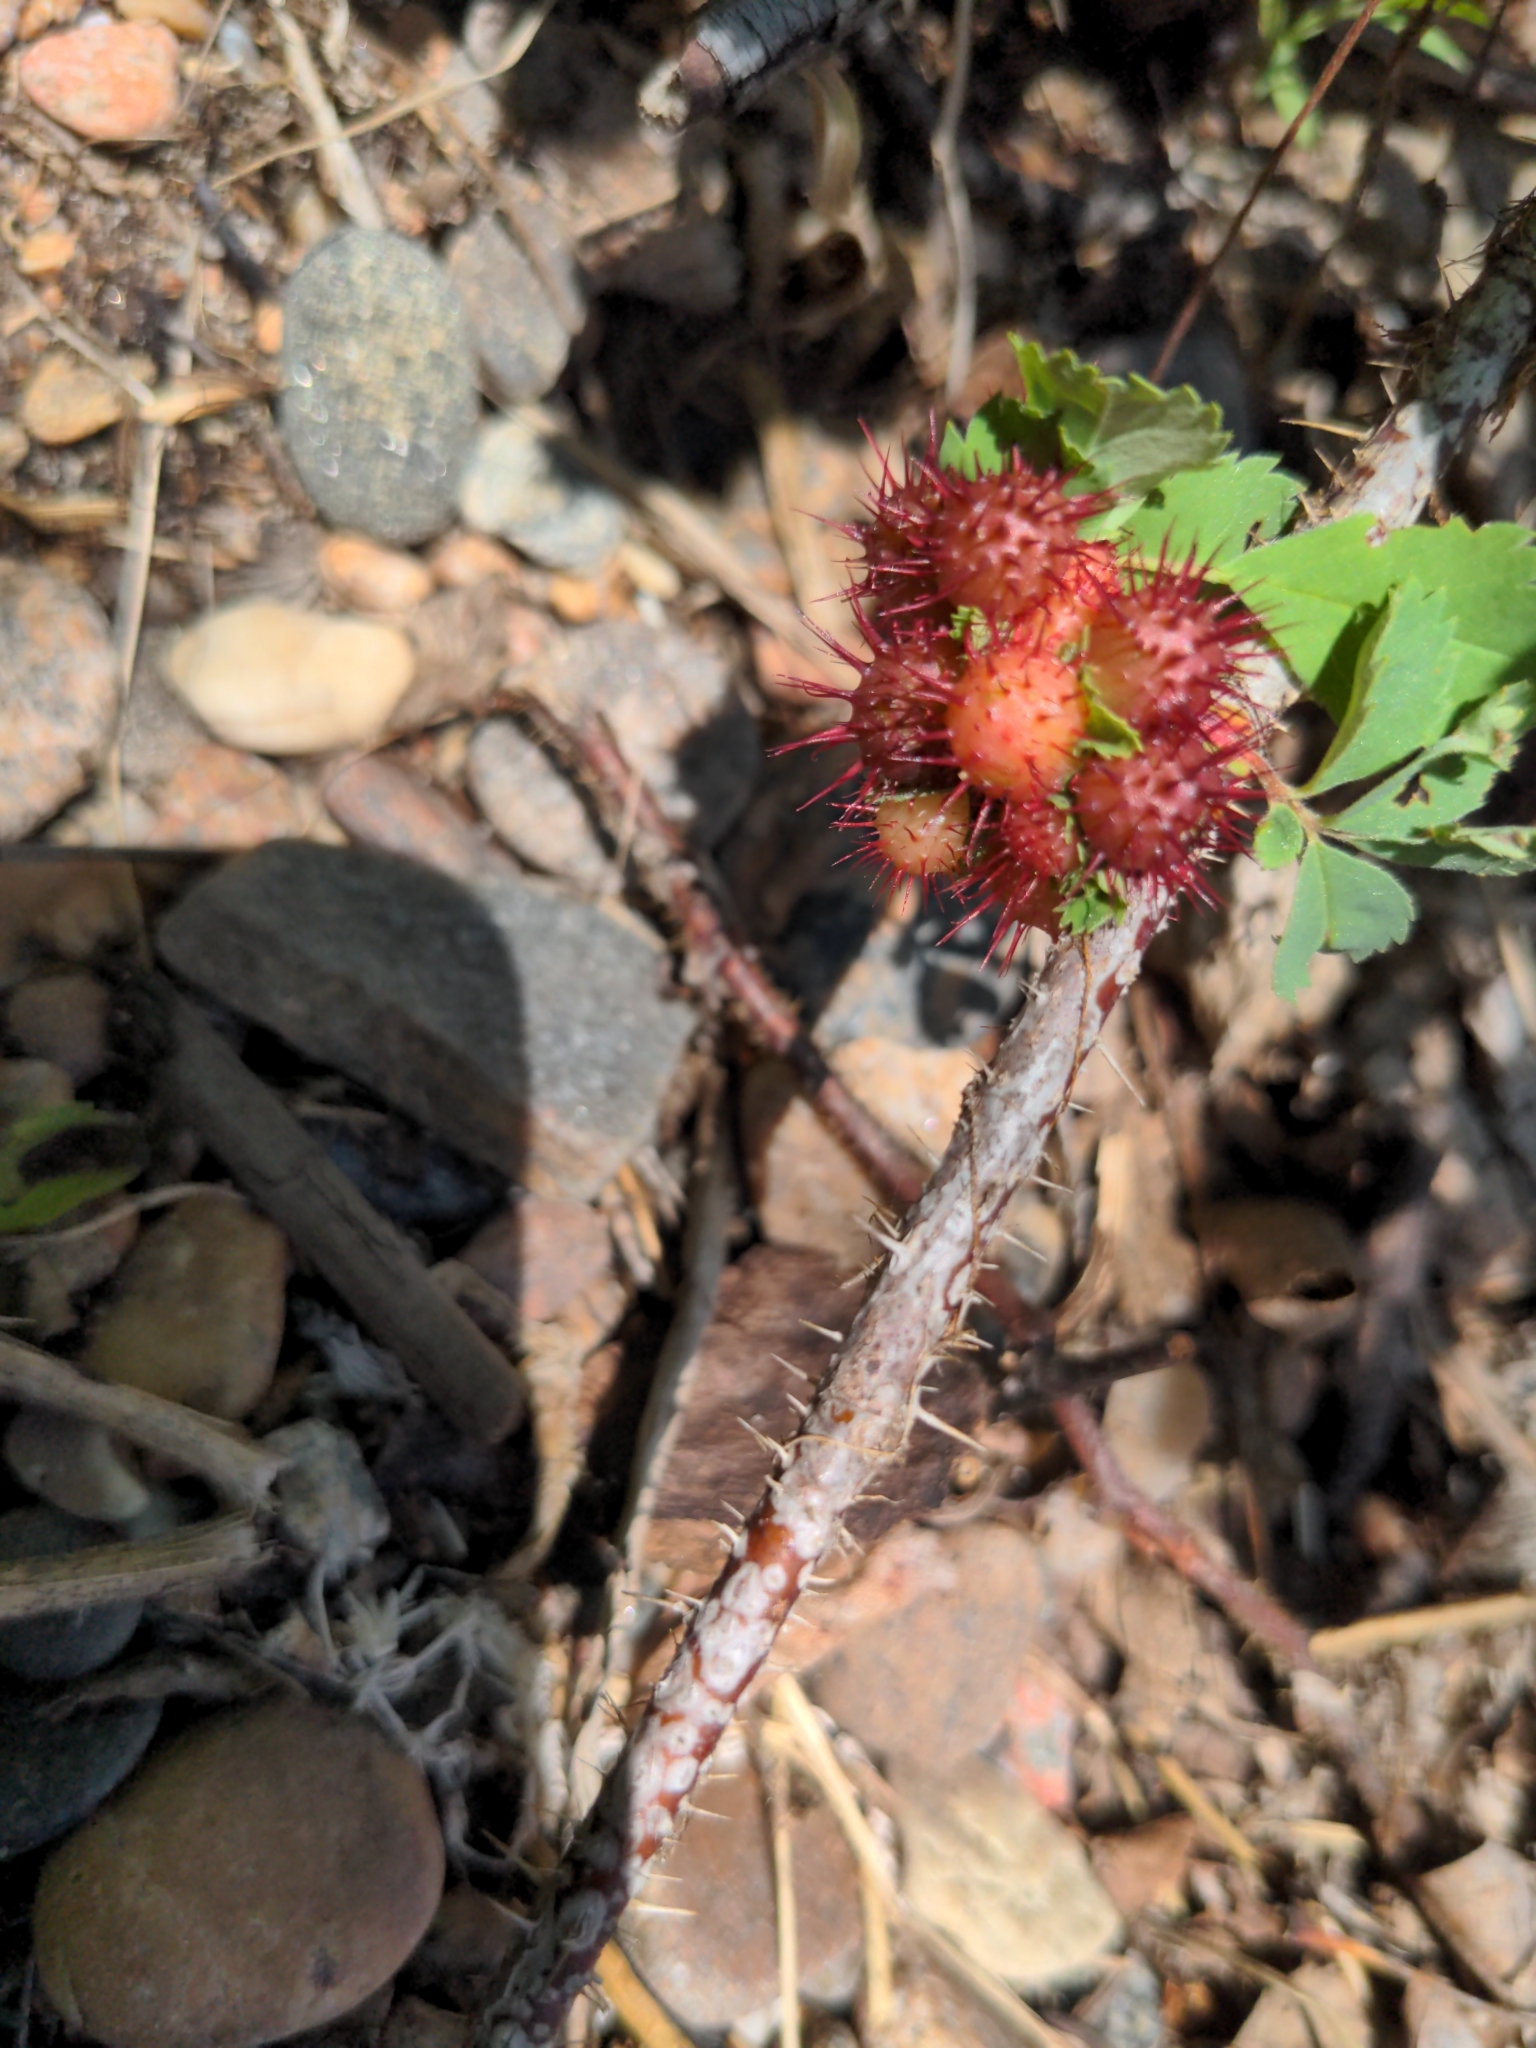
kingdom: Animalia
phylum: Arthropoda
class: Insecta
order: Hymenoptera
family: Cynipidae
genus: Diplolepis
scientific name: Diplolepis bicolor
